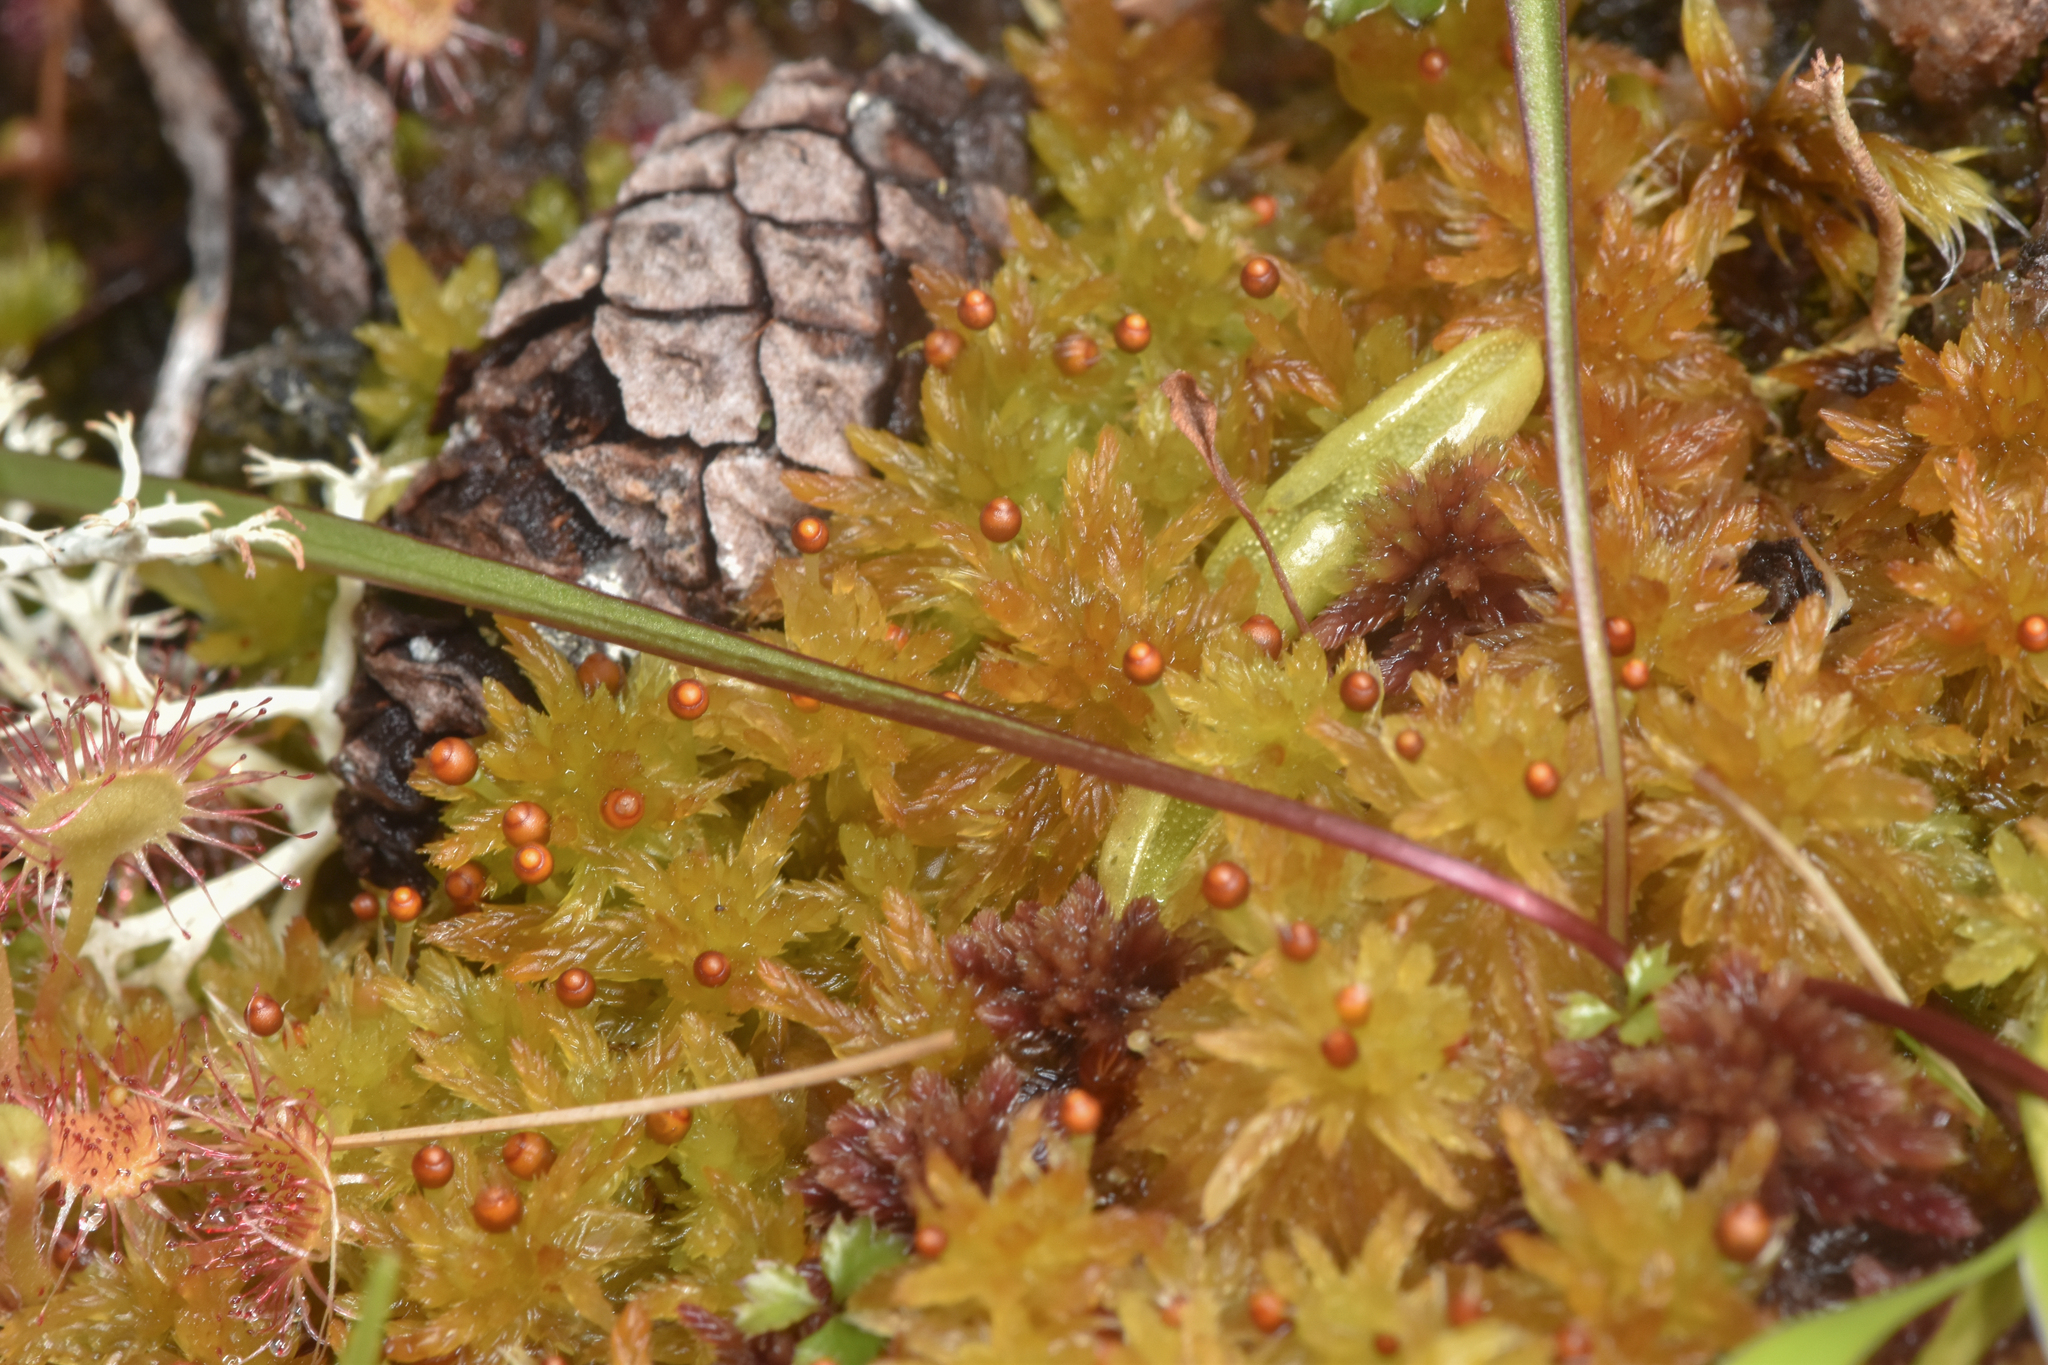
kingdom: Plantae
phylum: Bryophyta
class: Sphagnopsida
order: Sphagnales
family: Sphagnaceae
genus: Sphagnum
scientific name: Sphagnum tenellum
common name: Soft bog-moss
